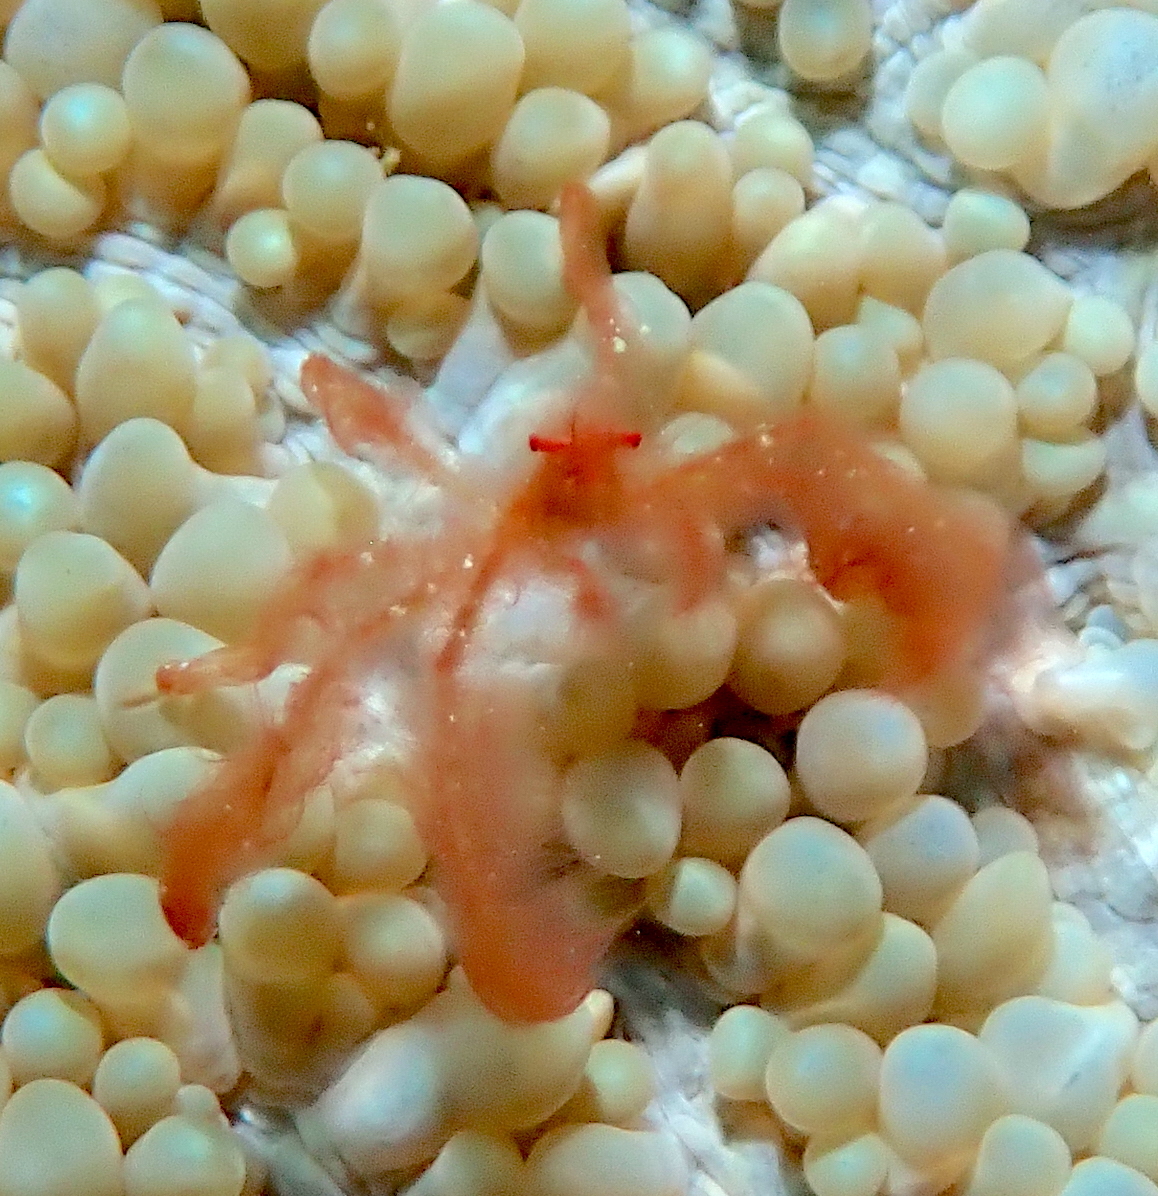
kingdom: Animalia
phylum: Arthropoda
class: Malacostraca
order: Decapoda
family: Inachidae
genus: Achaeus
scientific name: Achaeus japonicus
